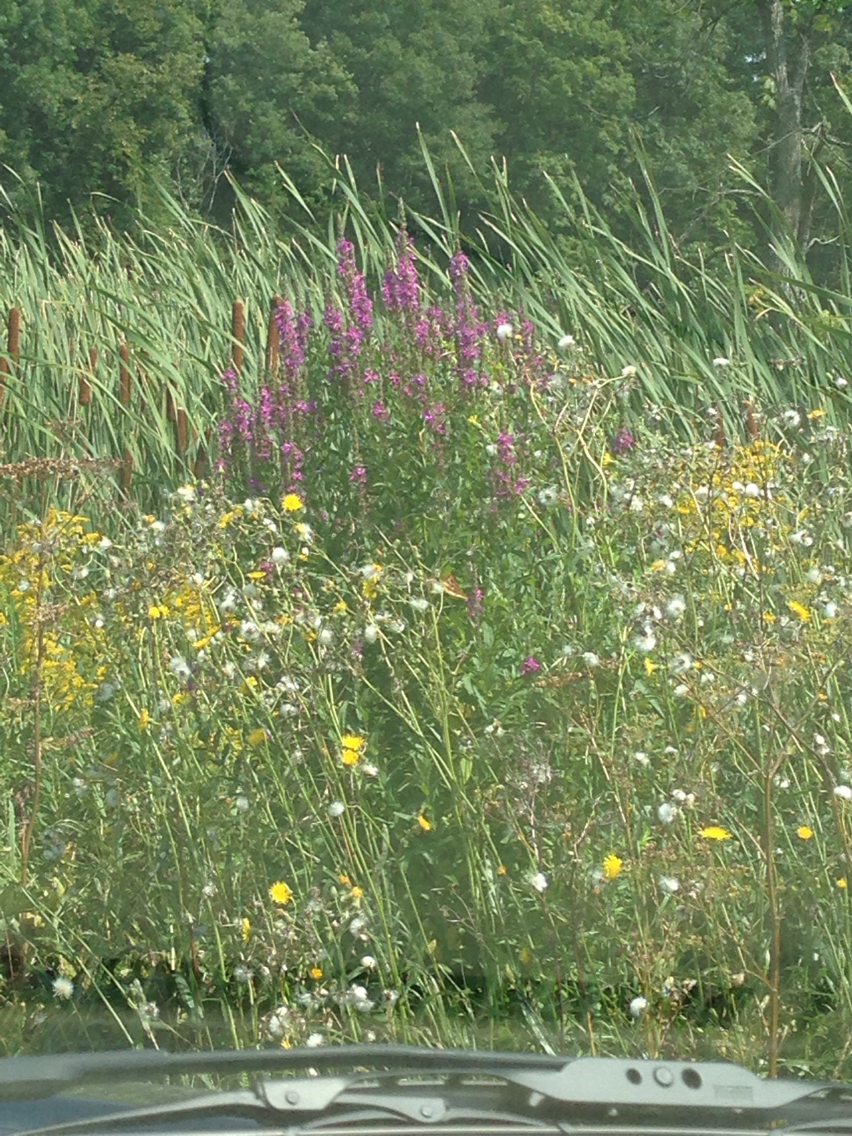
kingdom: Plantae
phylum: Tracheophyta
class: Magnoliopsida
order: Myrtales
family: Lythraceae
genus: Lythrum
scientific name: Lythrum salicaria
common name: Purple loosestrife
